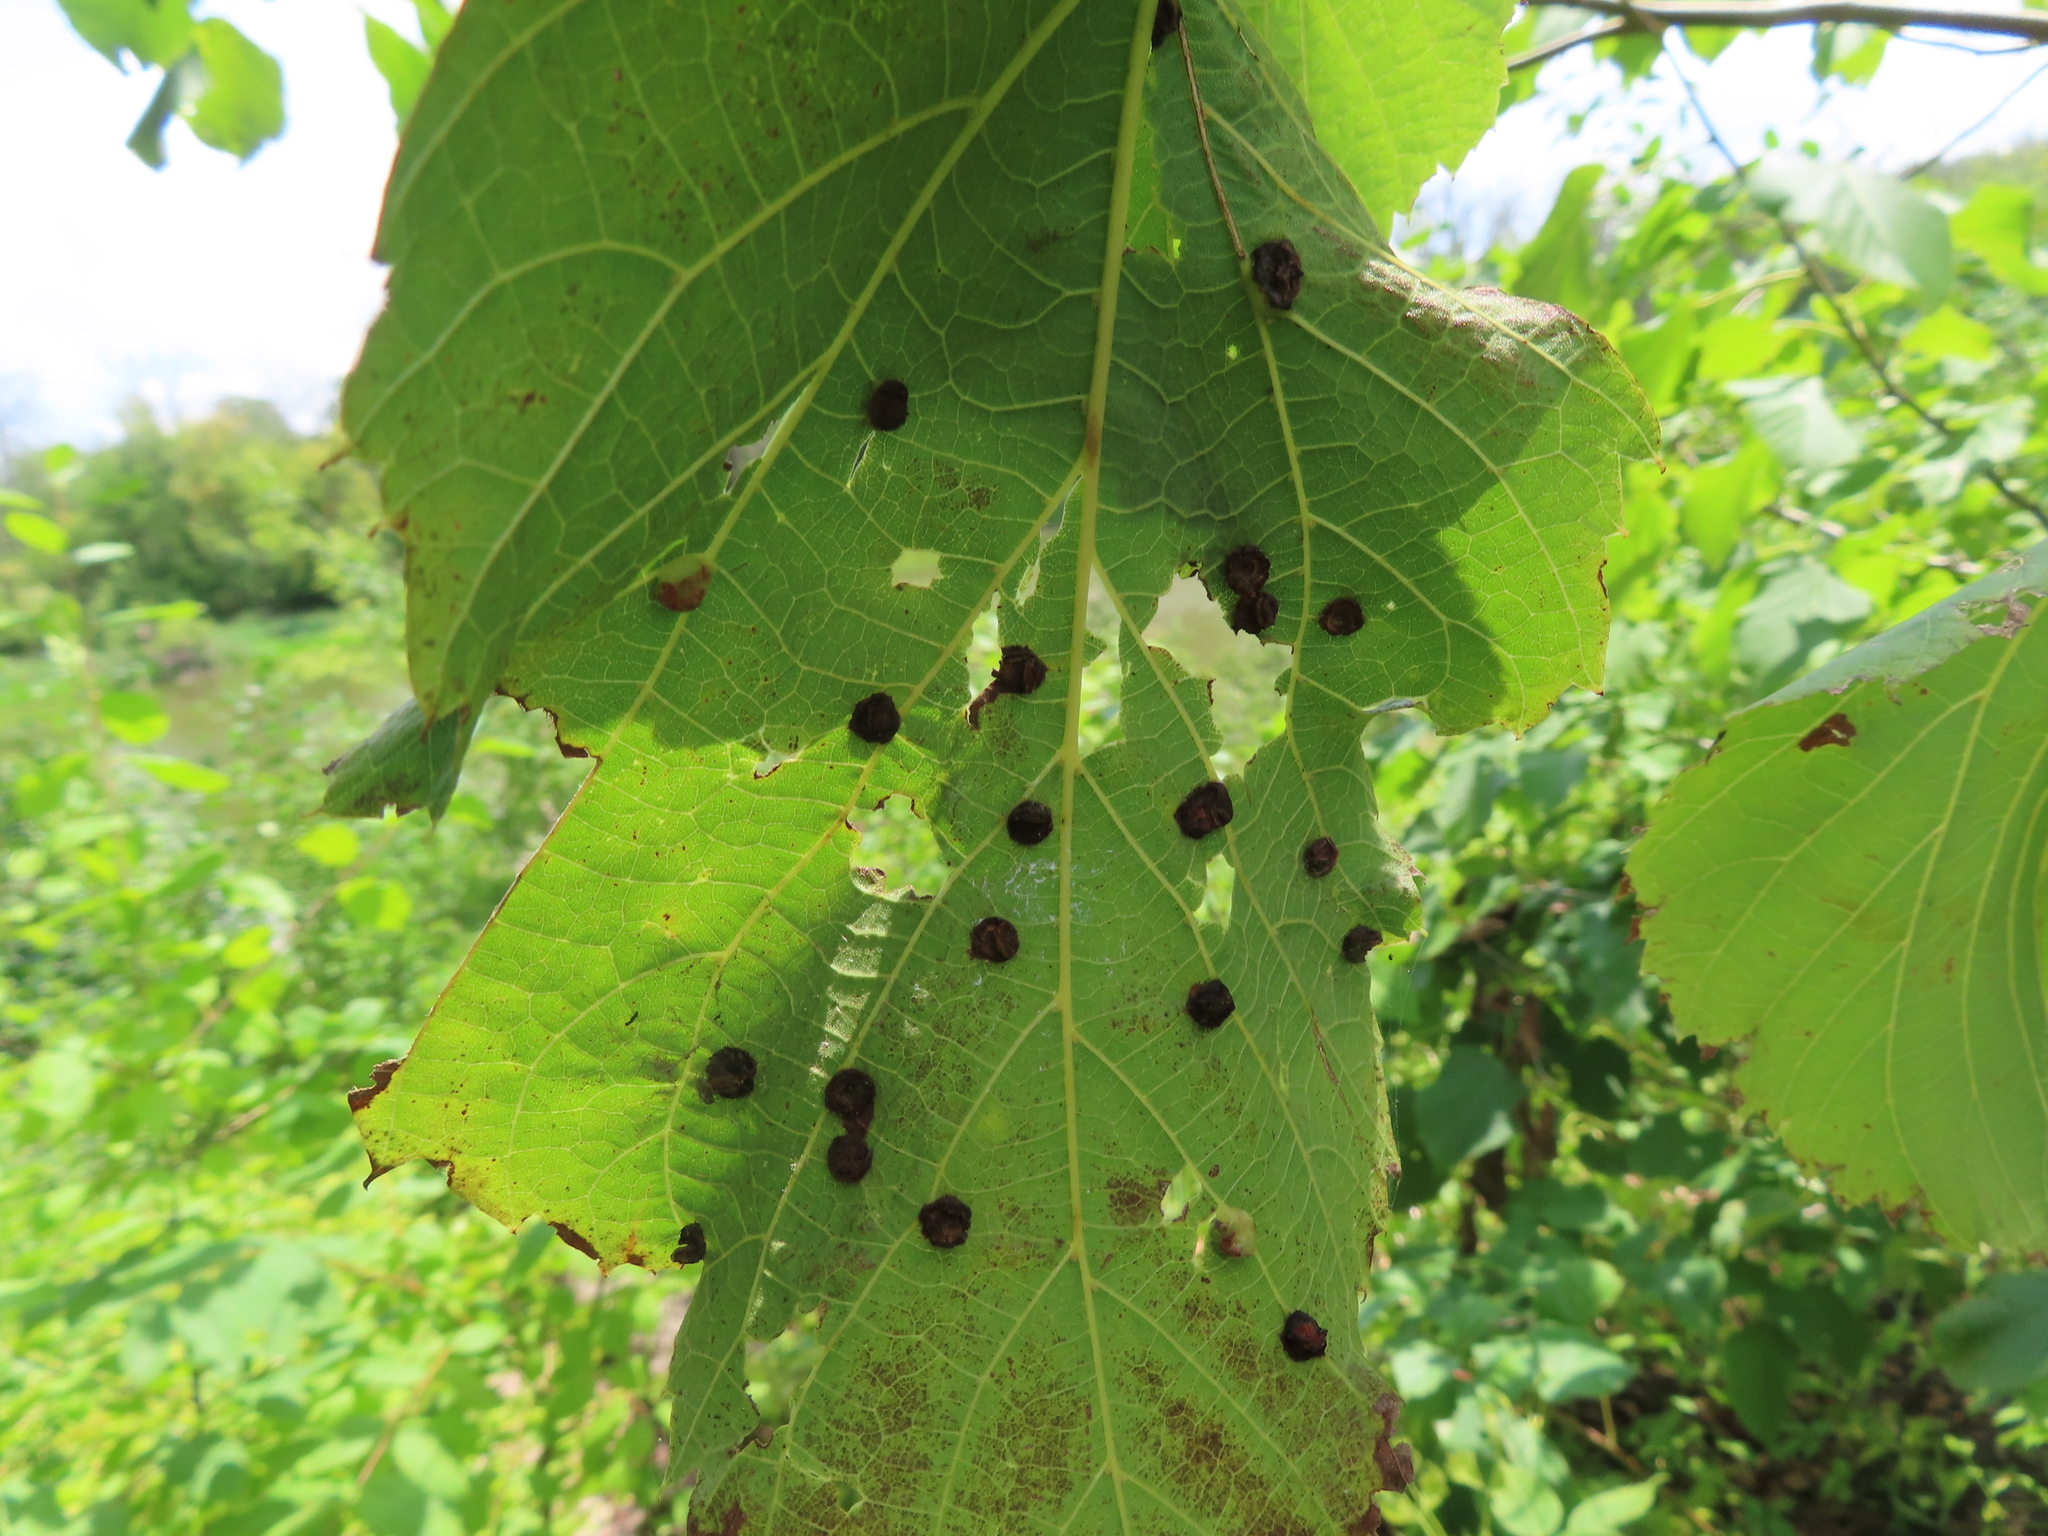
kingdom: Animalia
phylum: Arthropoda
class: Insecta
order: Diptera
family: Cecidomyiidae
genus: Contarinia
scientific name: Contarinia verrucicola
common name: Linden wart gall midge
